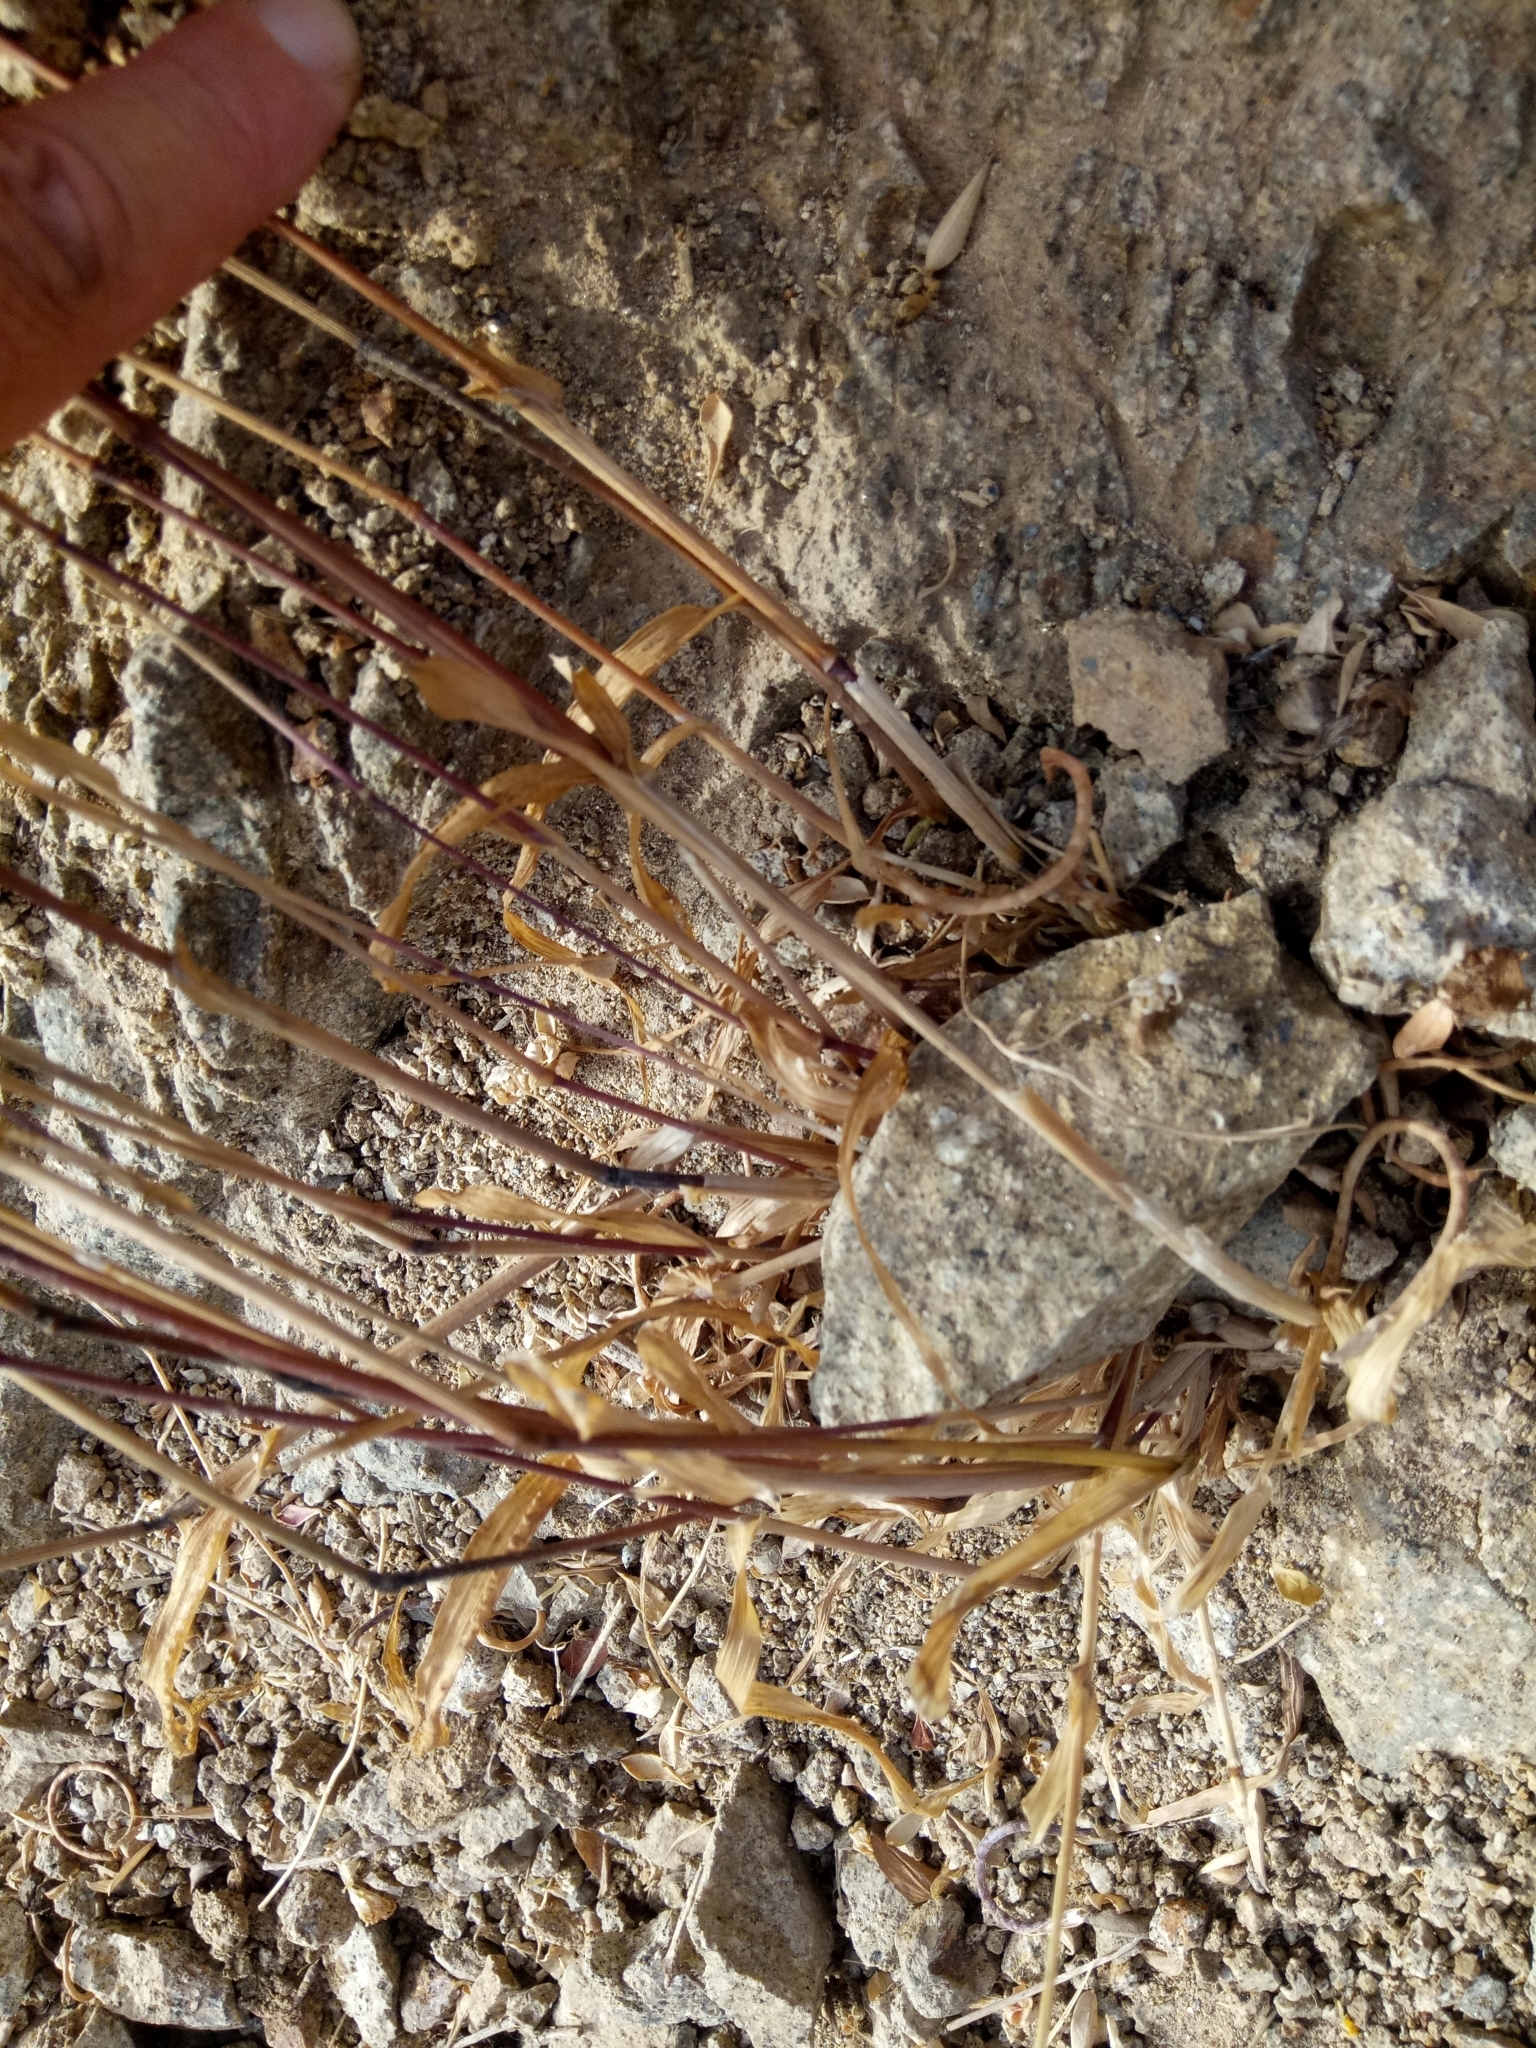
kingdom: Plantae
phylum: Tracheophyta
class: Liliopsida
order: Poales
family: Poaceae
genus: Cynosurus
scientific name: Cynosurus echinatus
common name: Rough dog's-tail
